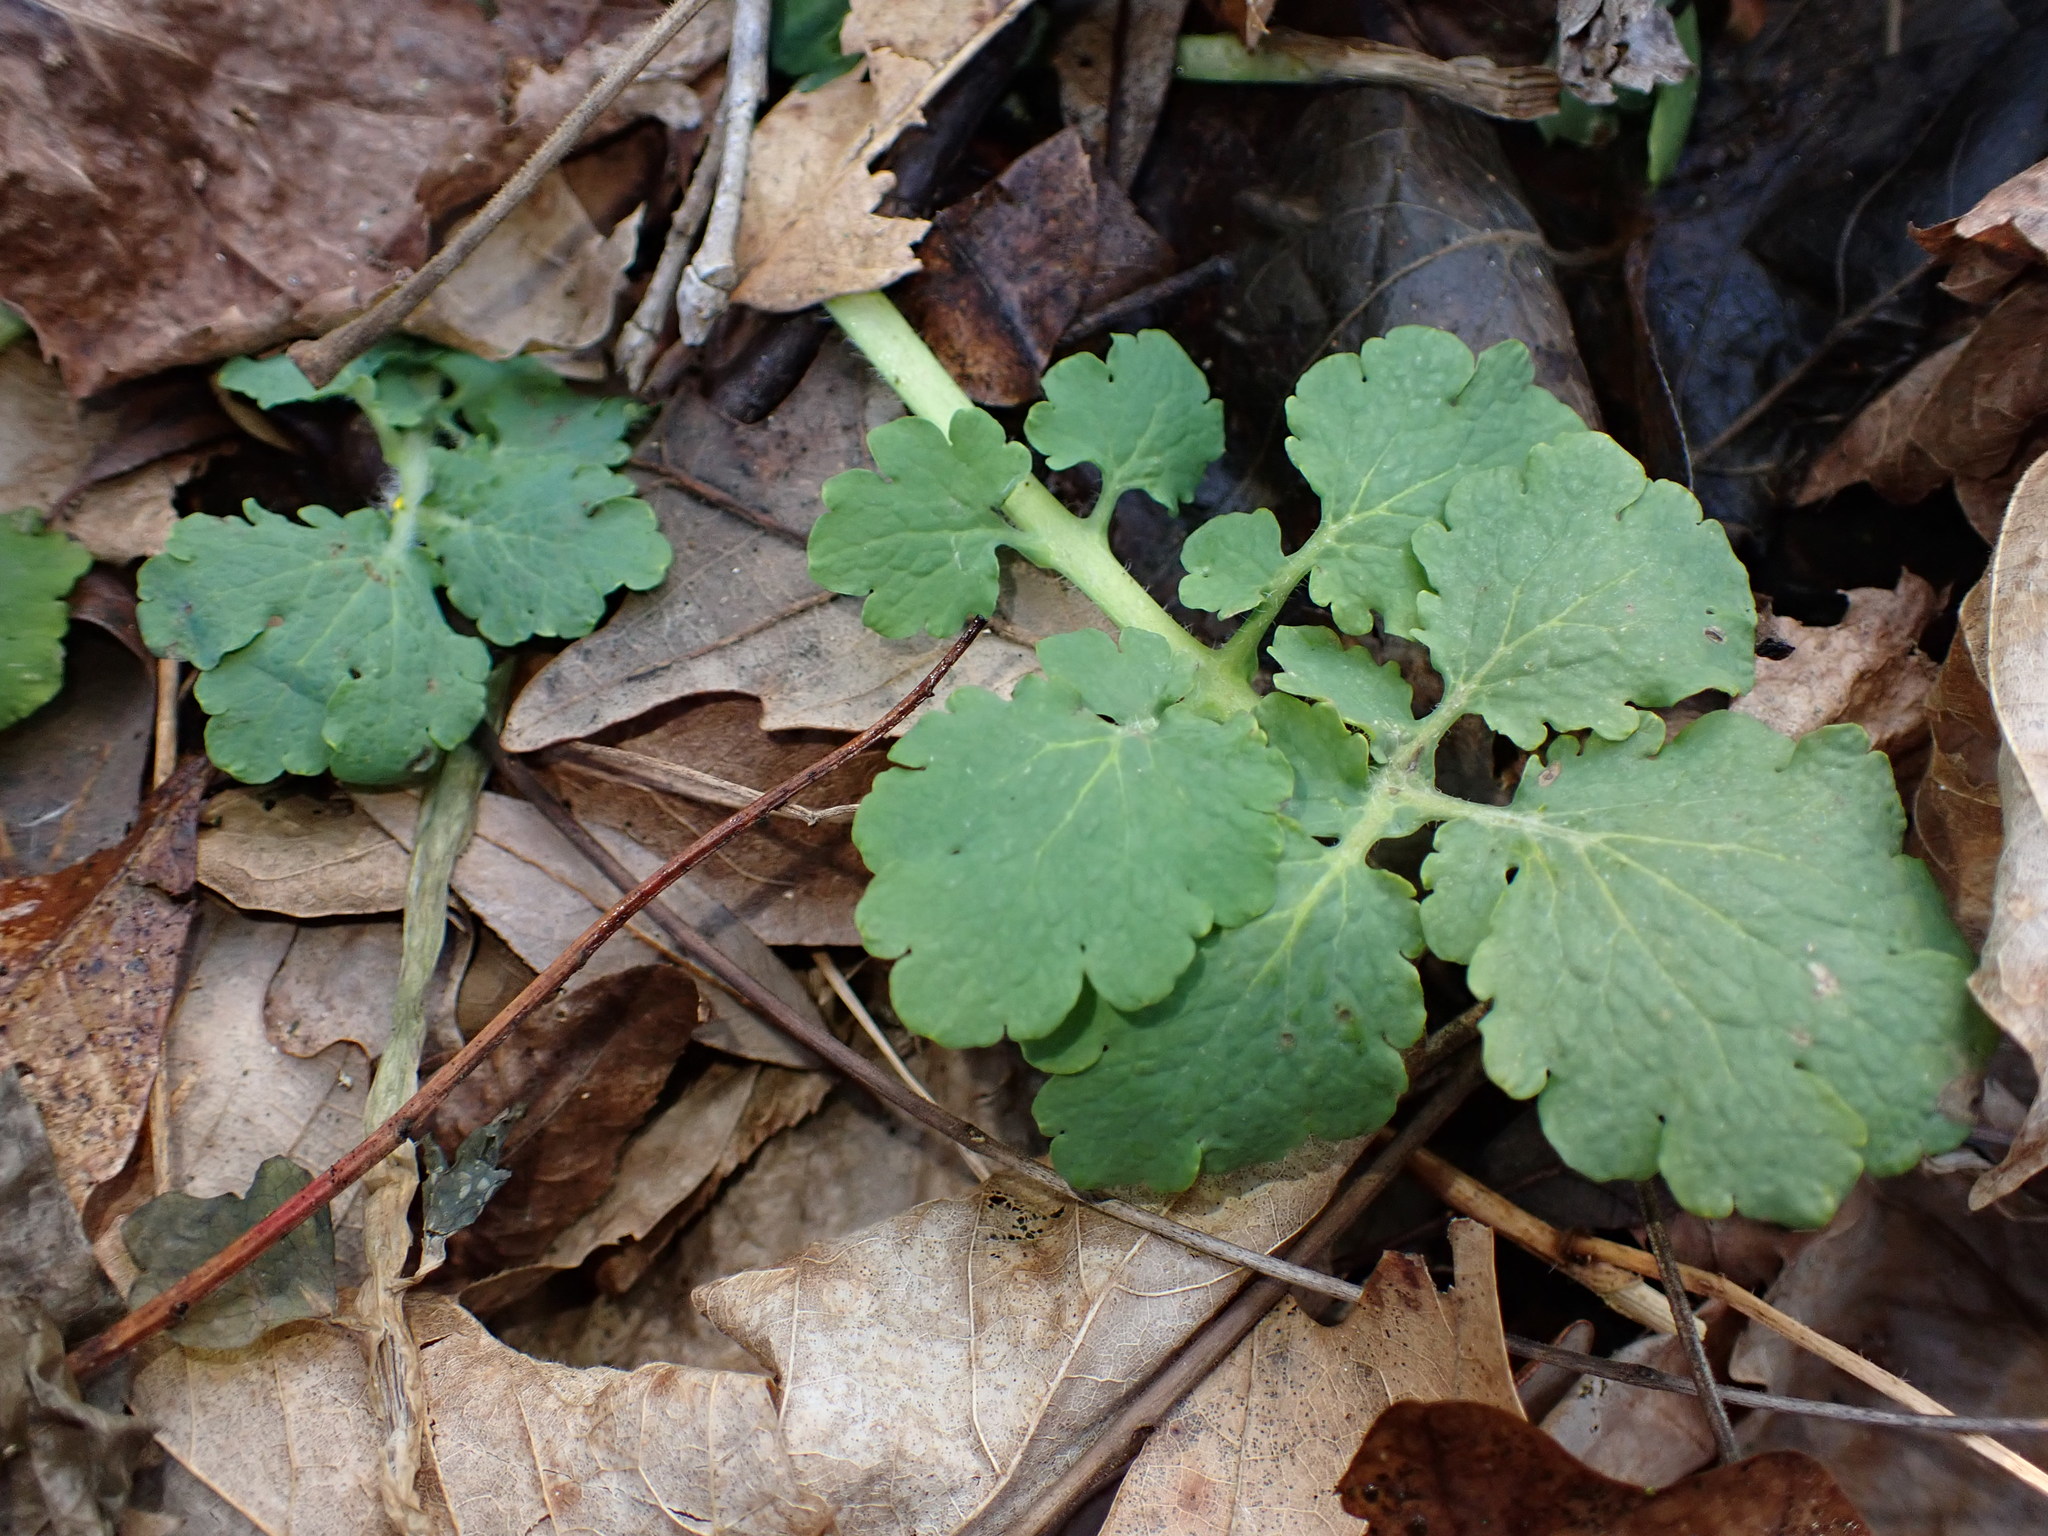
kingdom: Plantae
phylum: Tracheophyta
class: Magnoliopsida
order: Ranunculales
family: Papaveraceae
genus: Chelidonium
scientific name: Chelidonium majus
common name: Greater celandine
